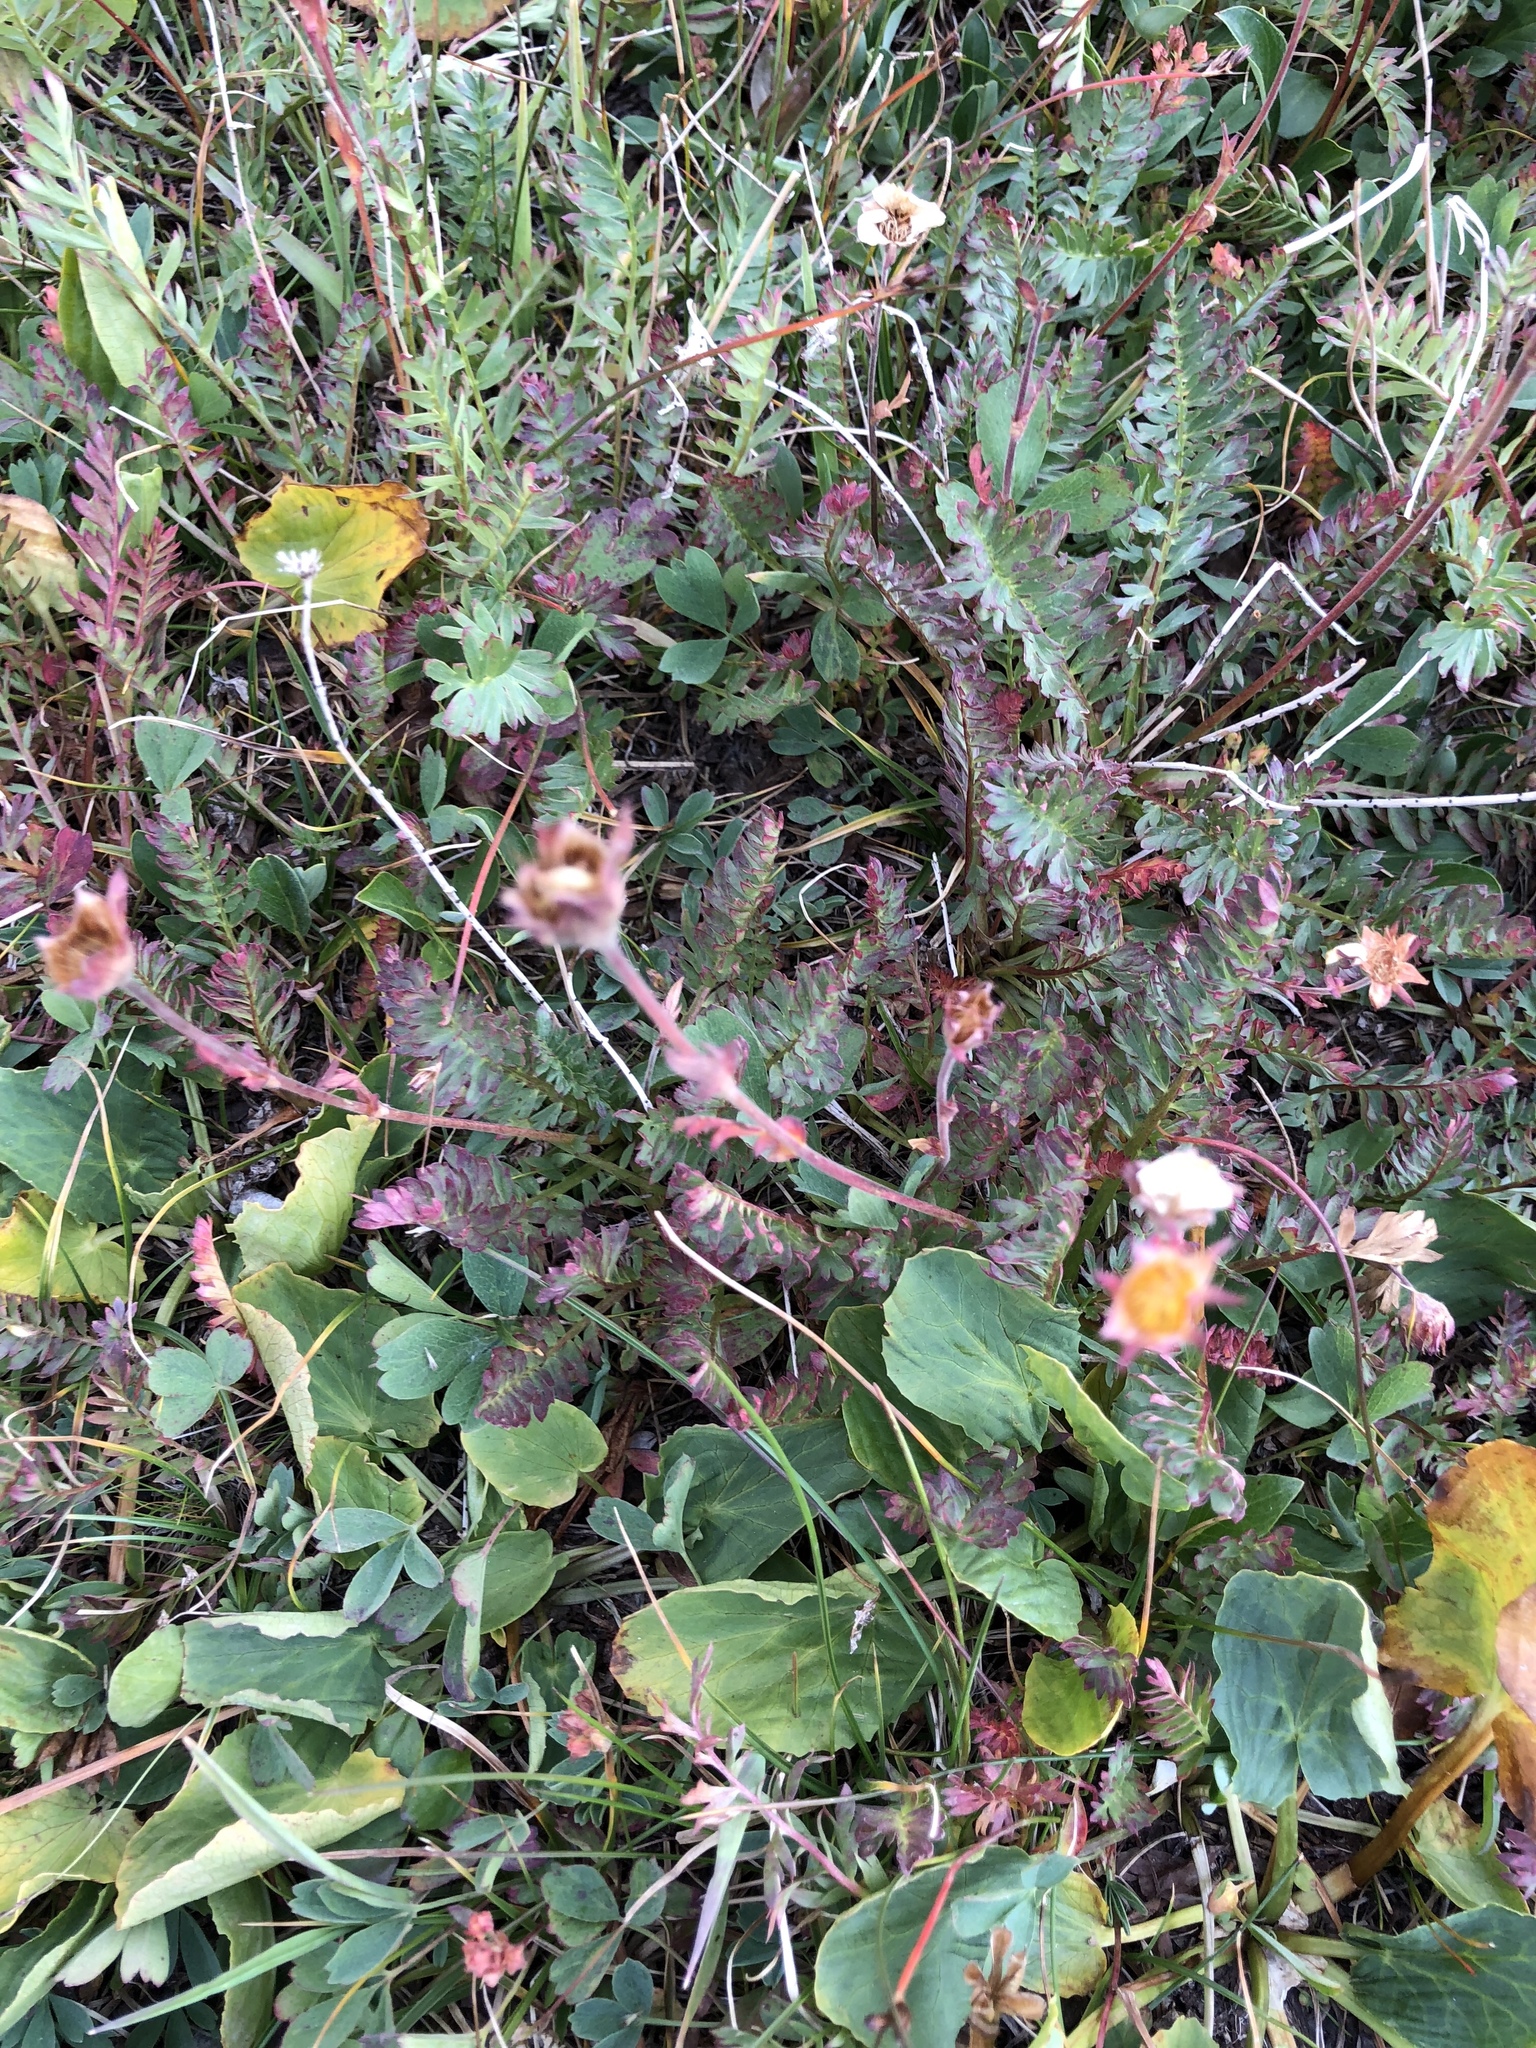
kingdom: Plantae
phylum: Tracheophyta
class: Magnoliopsida
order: Rosales
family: Rosaceae
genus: Geum
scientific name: Geum rossii
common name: Alpine avens
